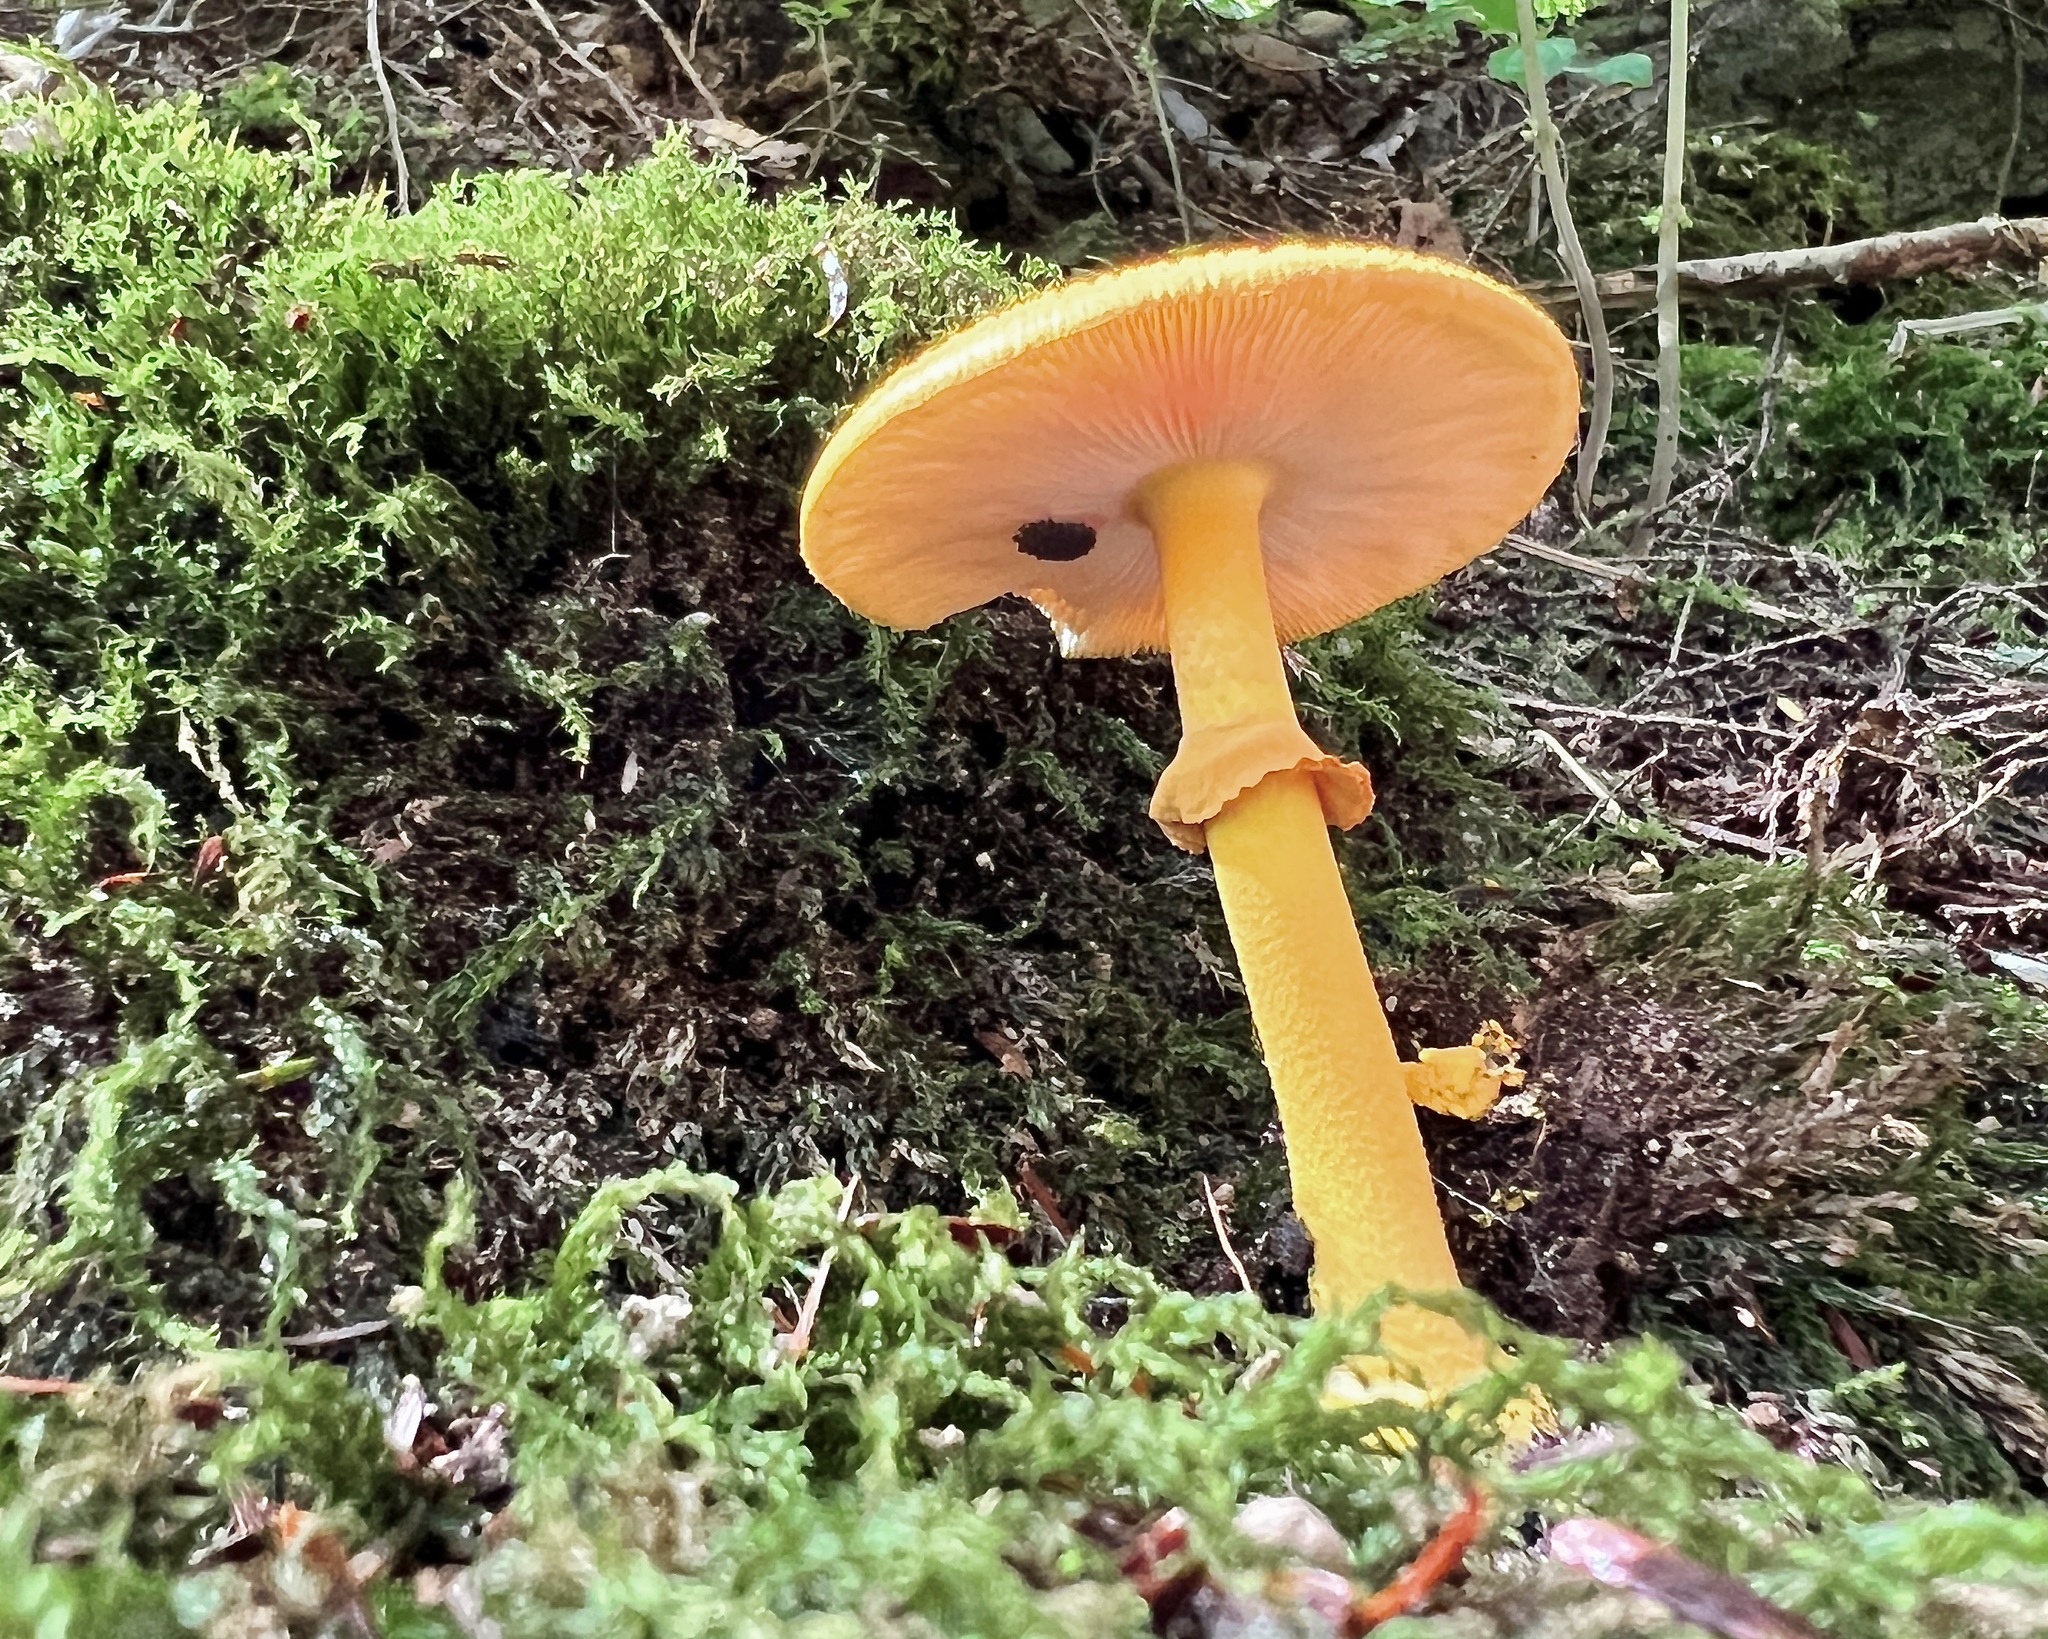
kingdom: Fungi
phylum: Basidiomycota
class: Agaricomycetes
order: Agaricales
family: Amanitaceae
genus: Amanita
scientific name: Amanita flavoconia
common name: Yellow patches
